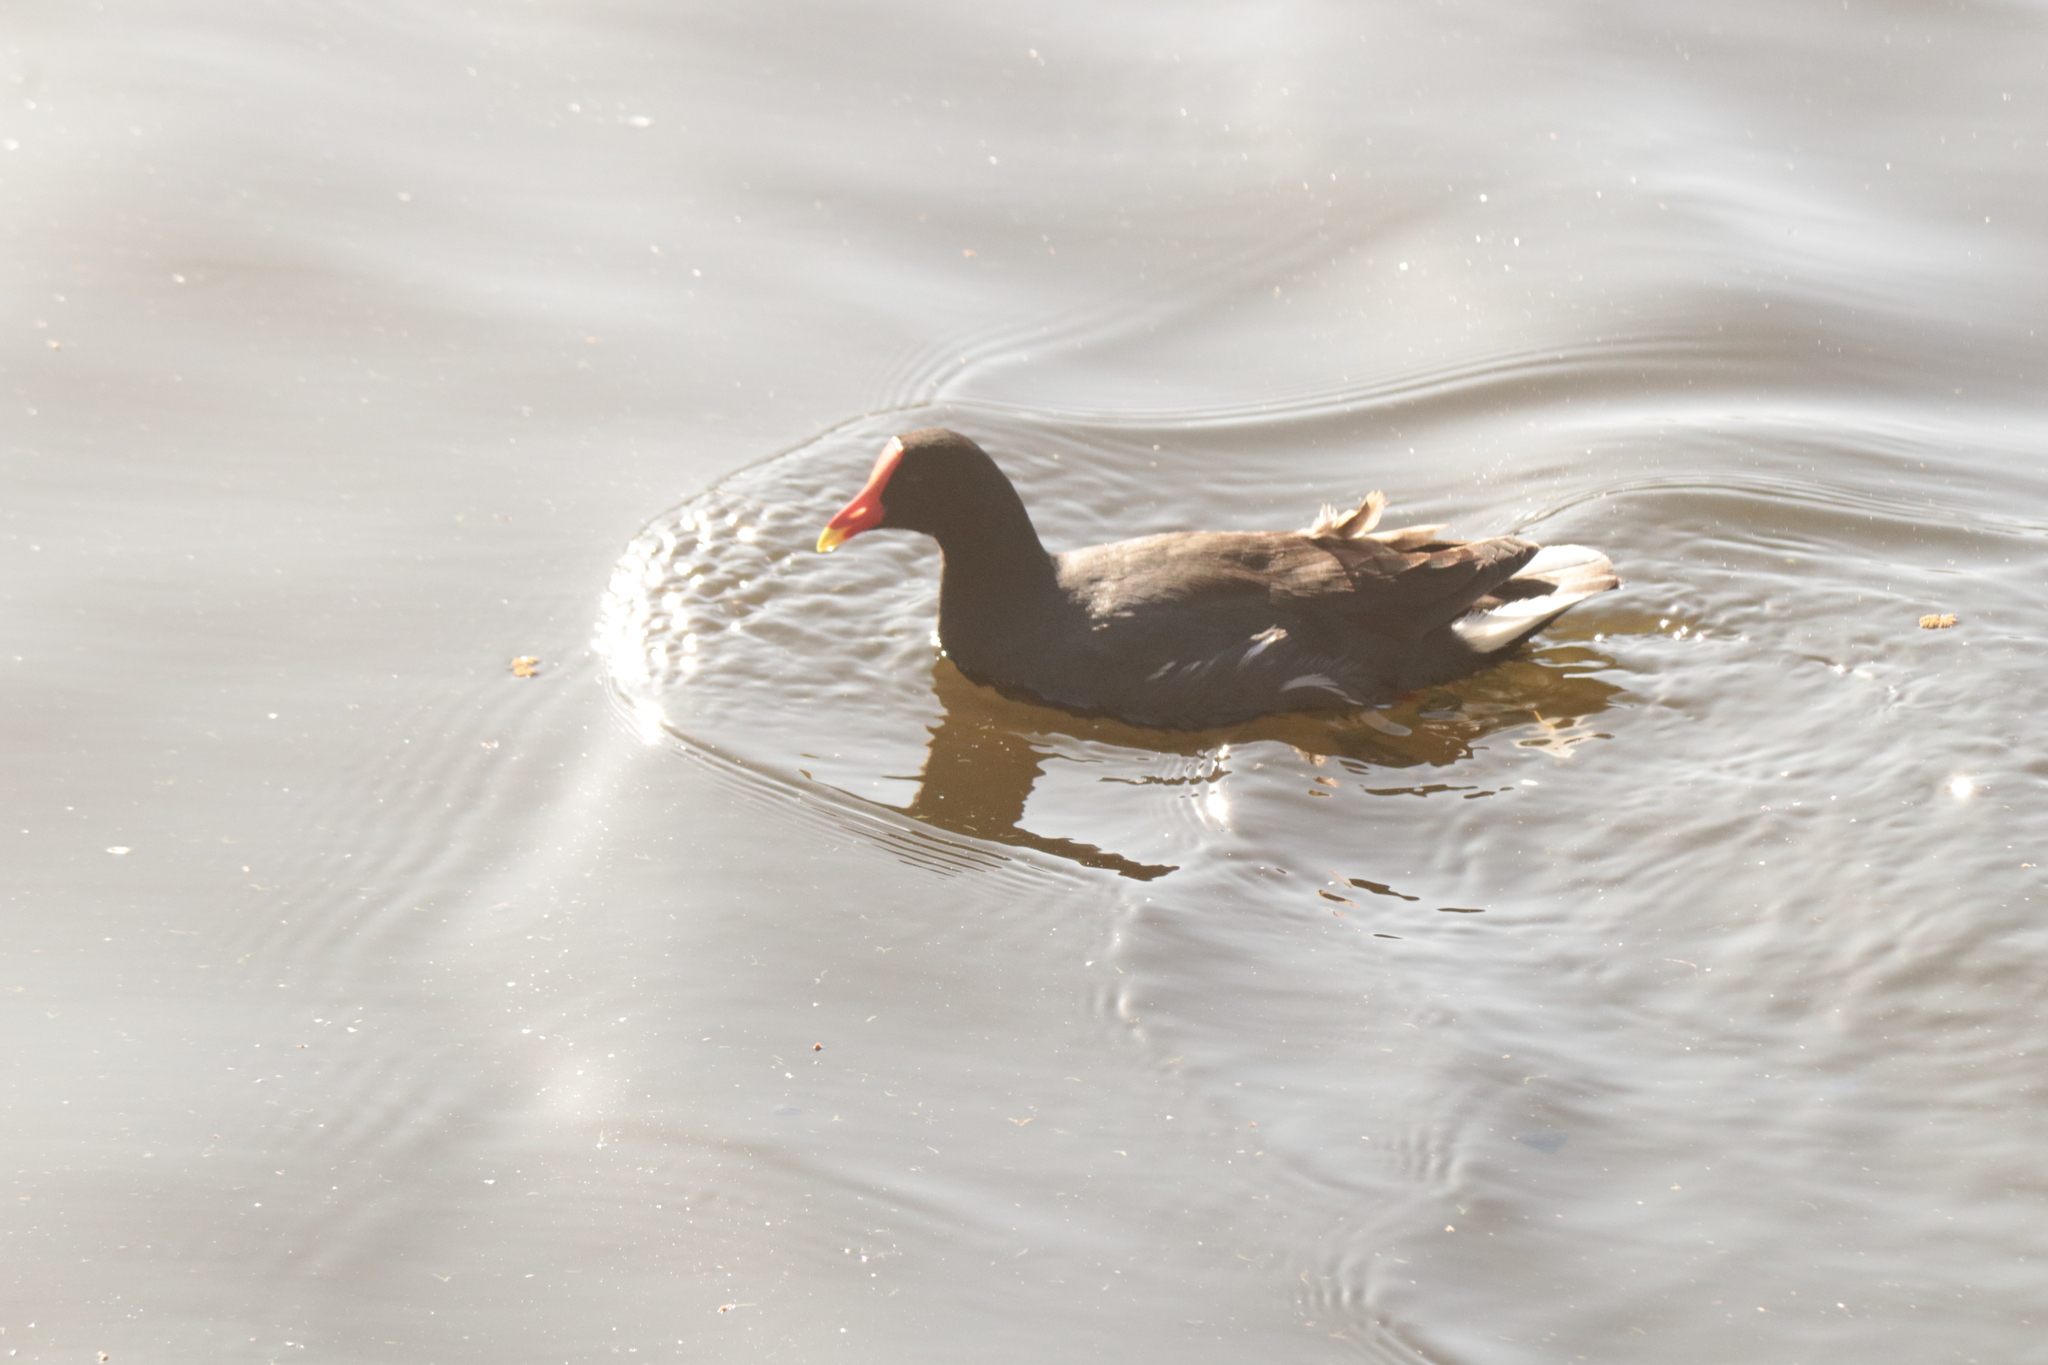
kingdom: Animalia
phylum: Chordata
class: Aves
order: Gruiformes
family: Rallidae
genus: Gallinula
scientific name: Gallinula chloropus
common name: Common moorhen
